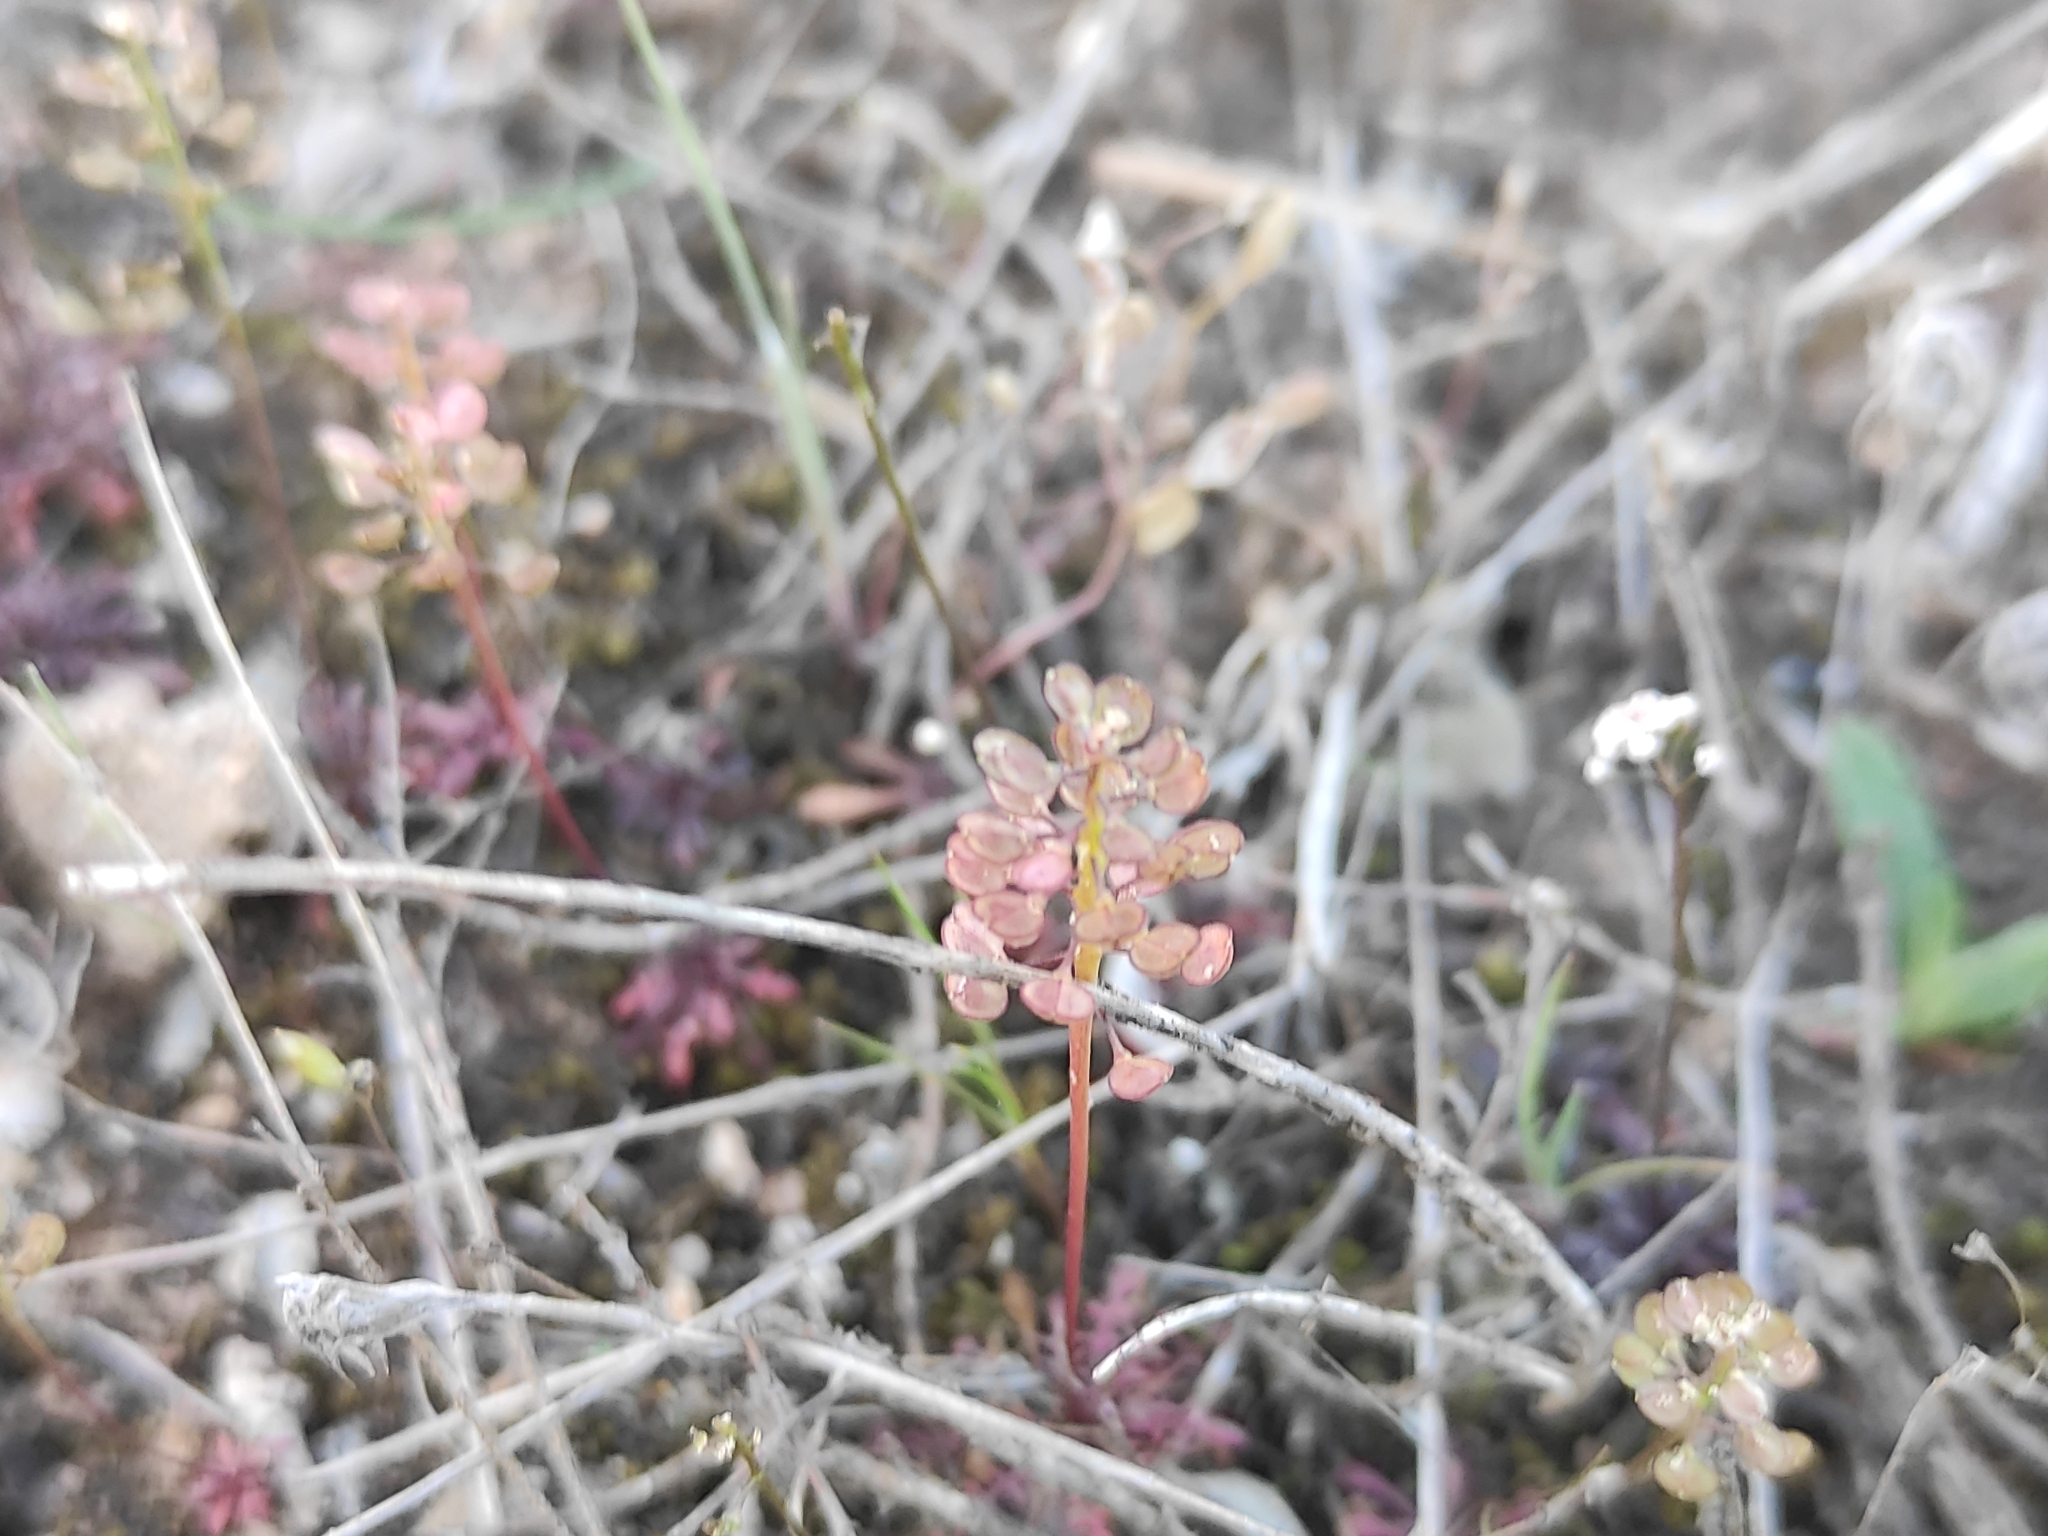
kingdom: Plantae
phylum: Tracheophyta
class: Magnoliopsida
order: Brassicales
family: Brassicaceae
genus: Teesdalia
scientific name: Teesdalia coronopifolia
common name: Lesser shepherdscress
